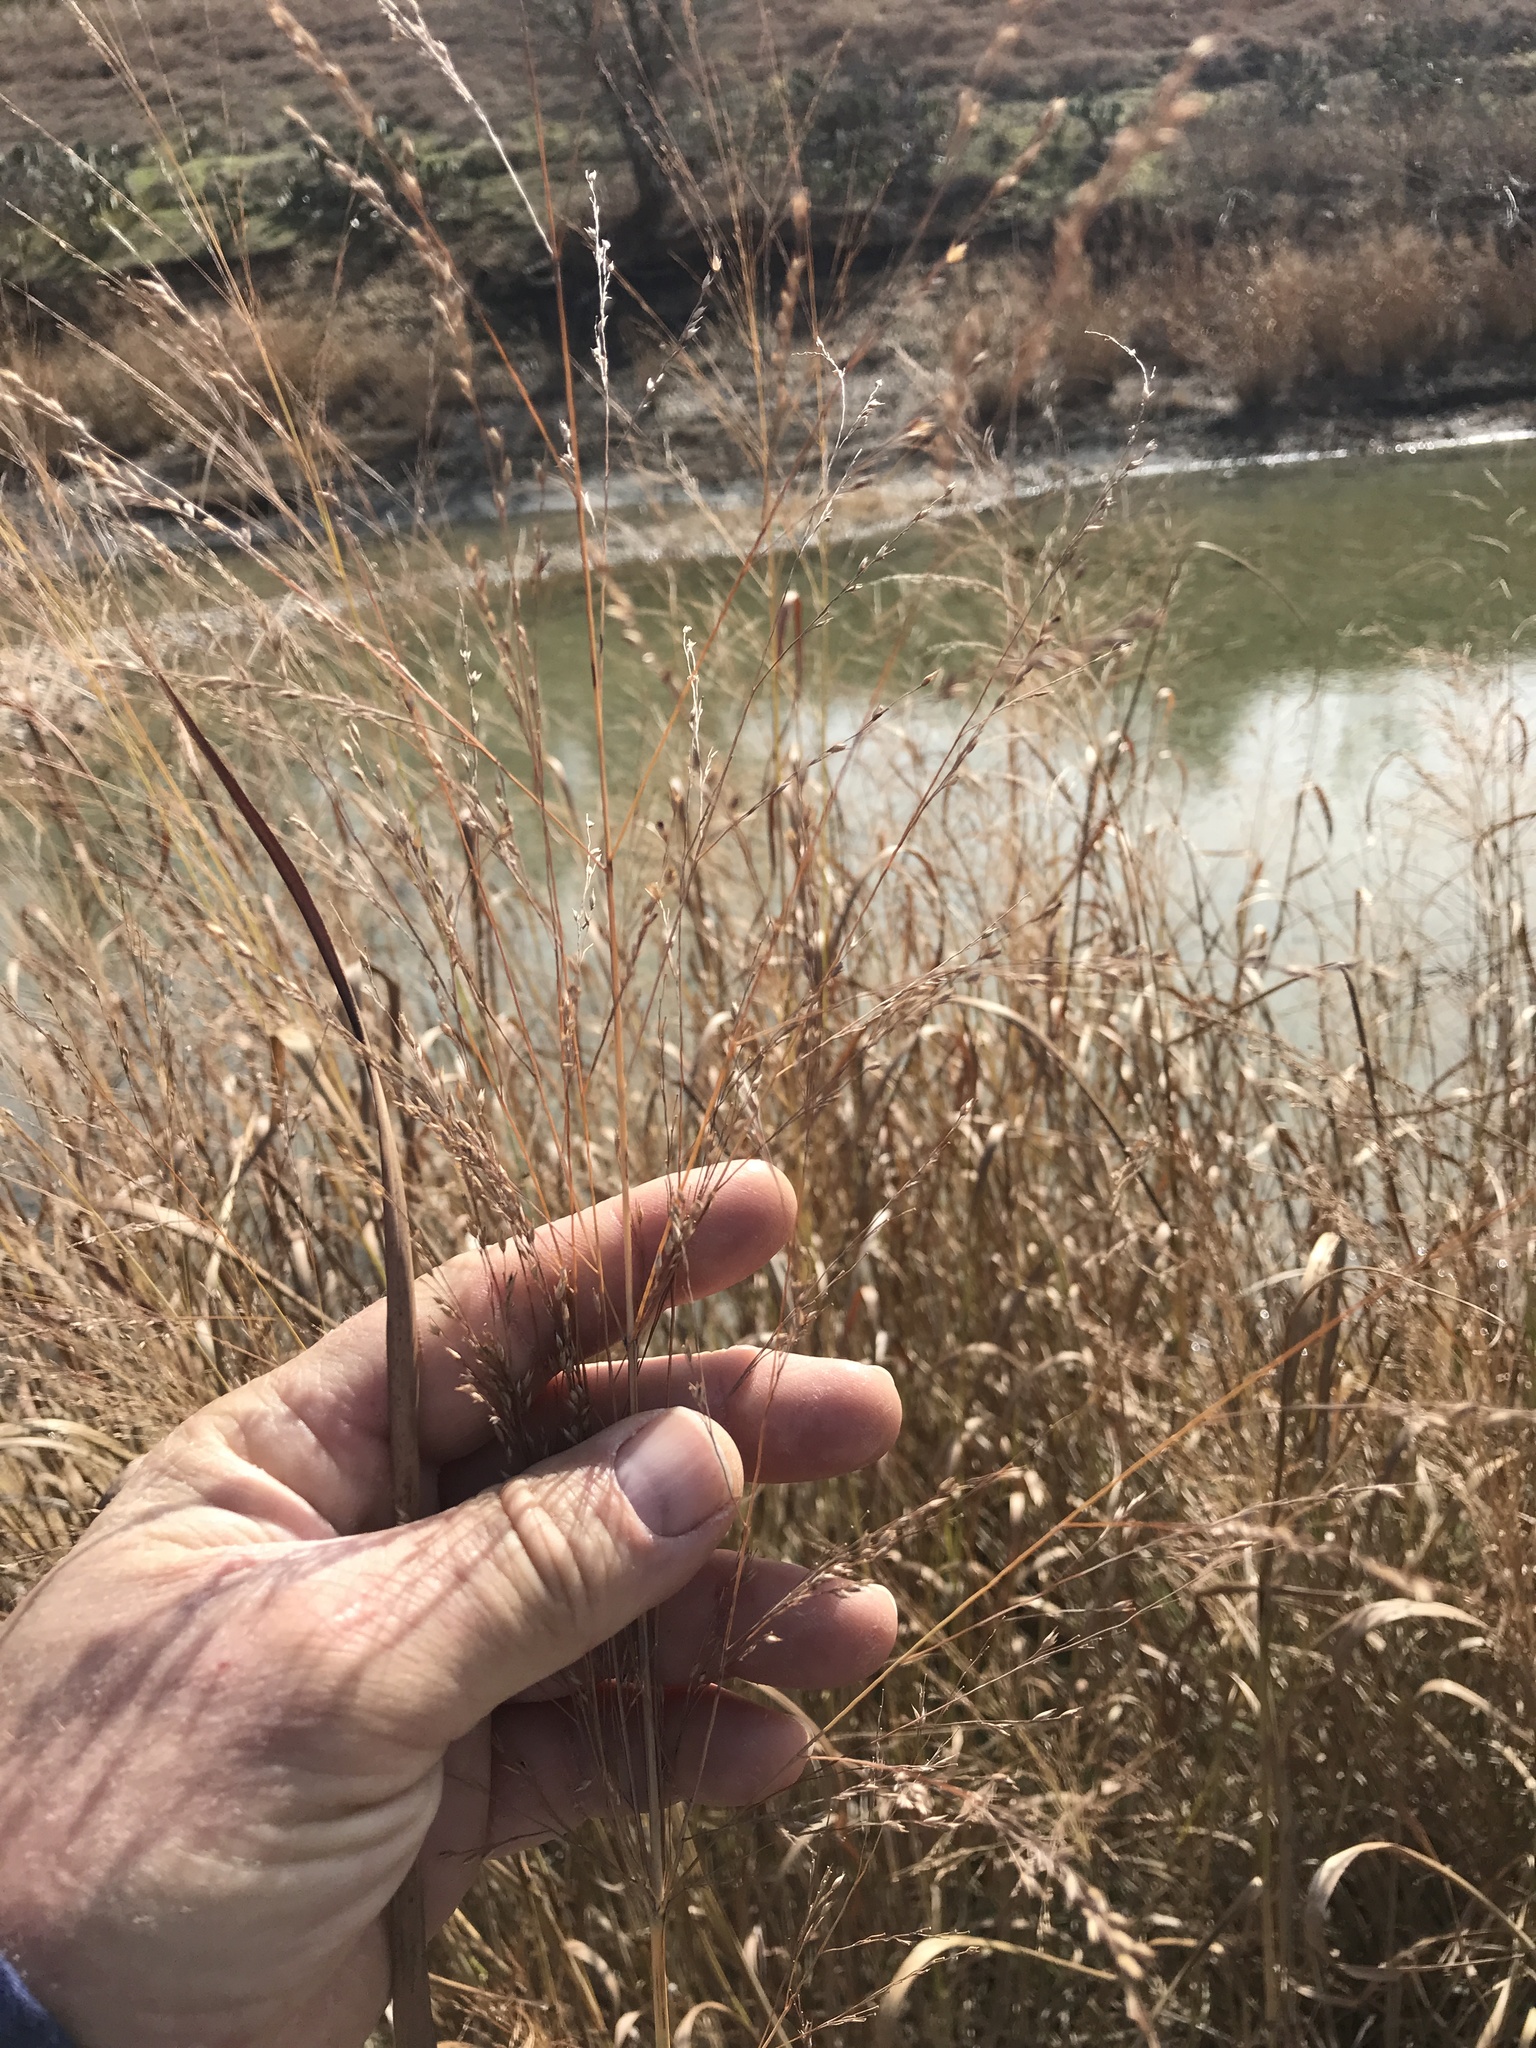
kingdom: Plantae
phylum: Tracheophyta
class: Liliopsida
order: Poales
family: Poaceae
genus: Panicum
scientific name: Panicum virgatum
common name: Switchgrass
